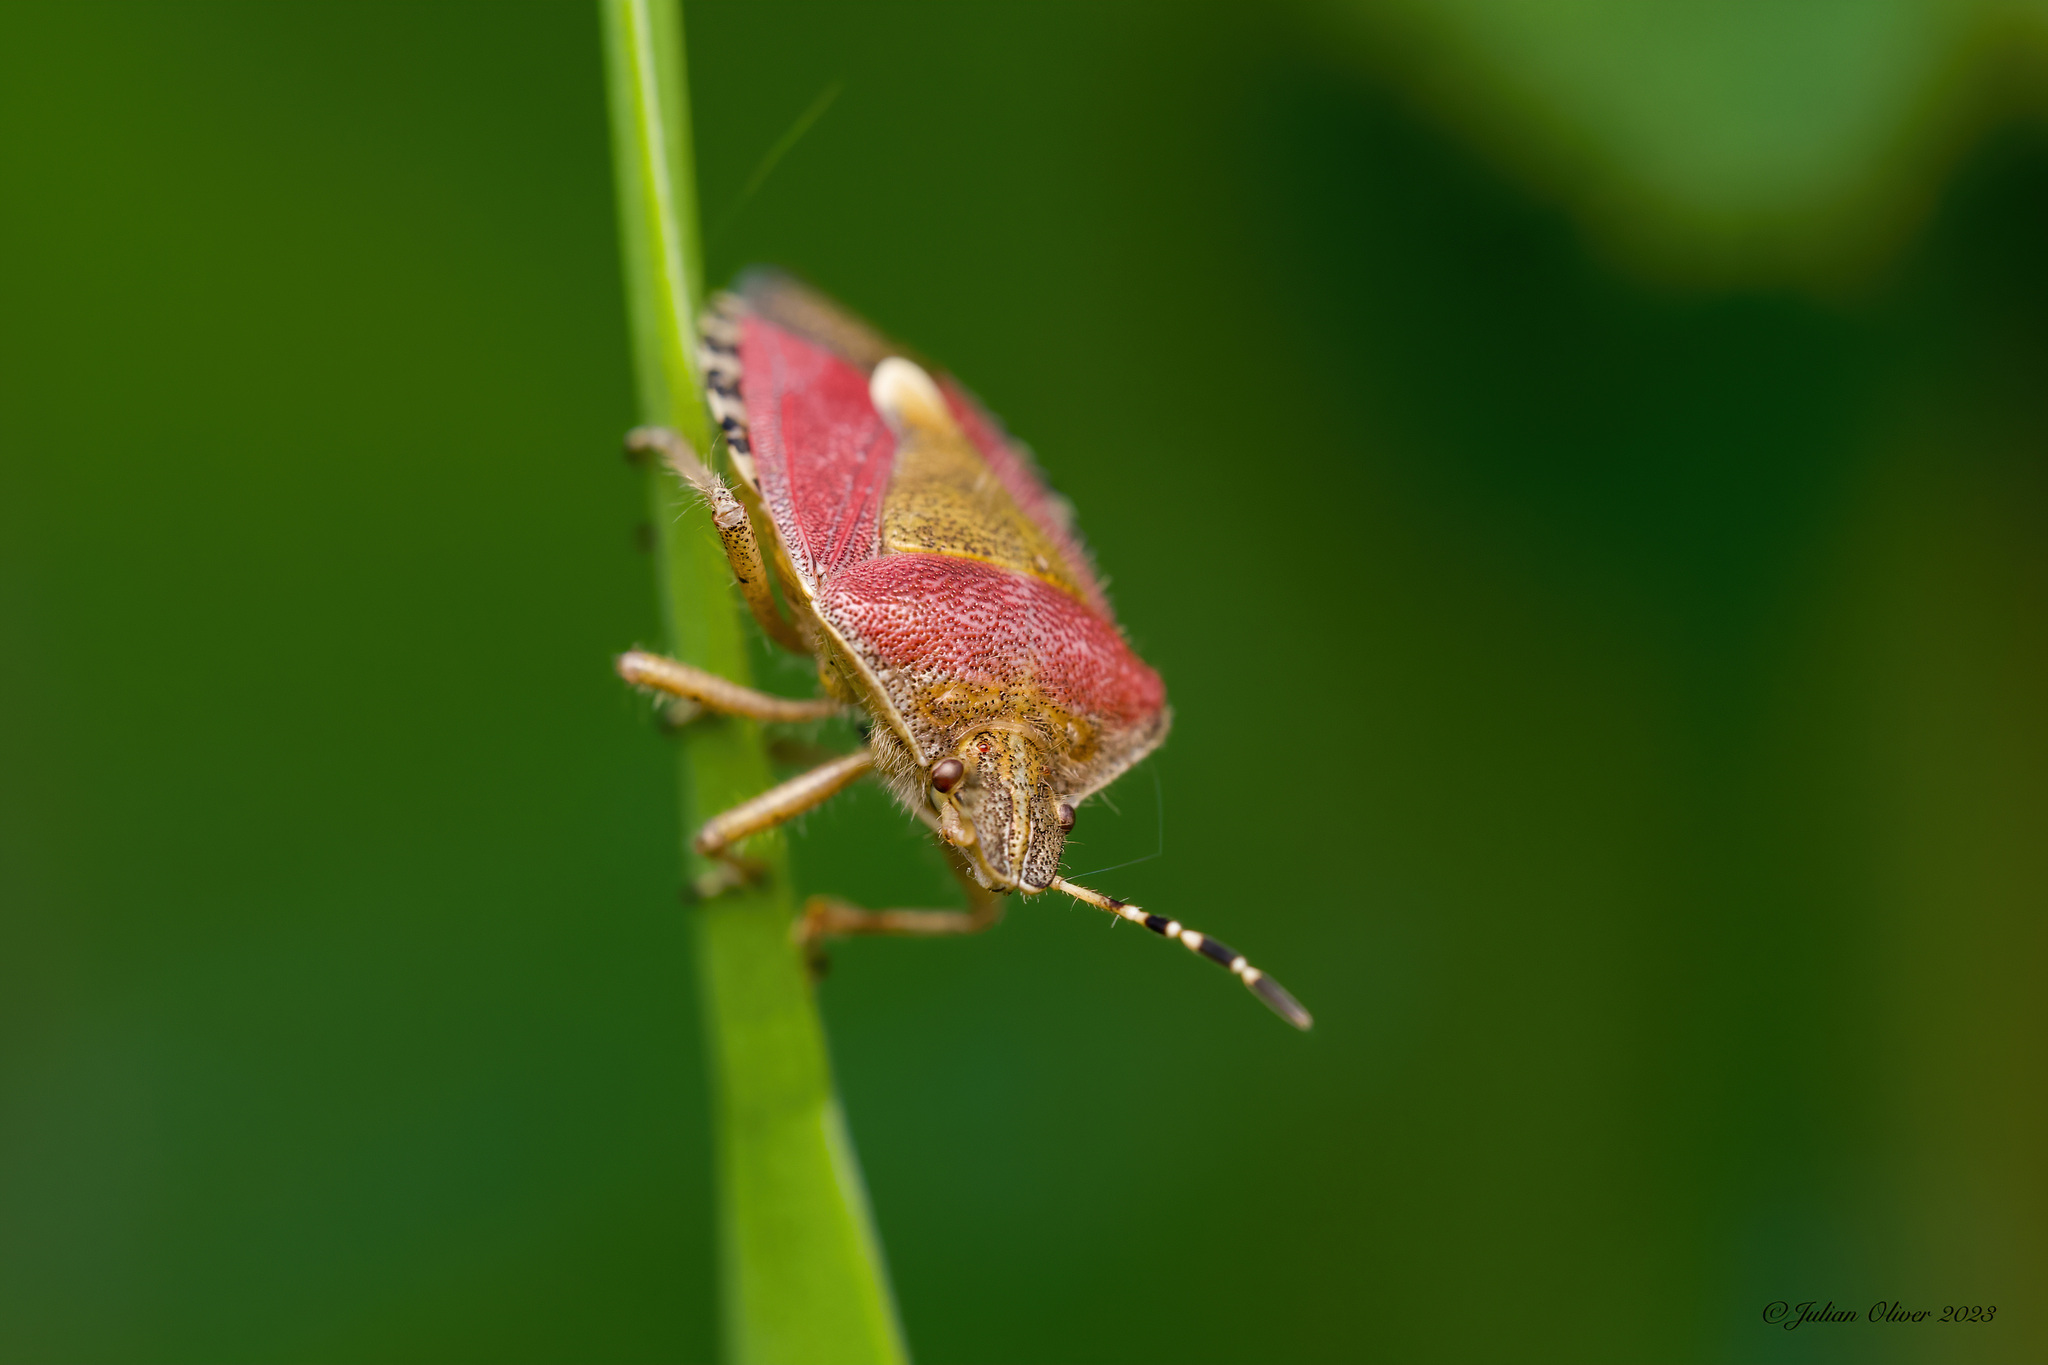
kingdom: Animalia
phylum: Arthropoda
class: Insecta
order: Hemiptera
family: Pentatomidae
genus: Dolycoris
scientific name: Dolycoris baccarum
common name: Sloe bug
